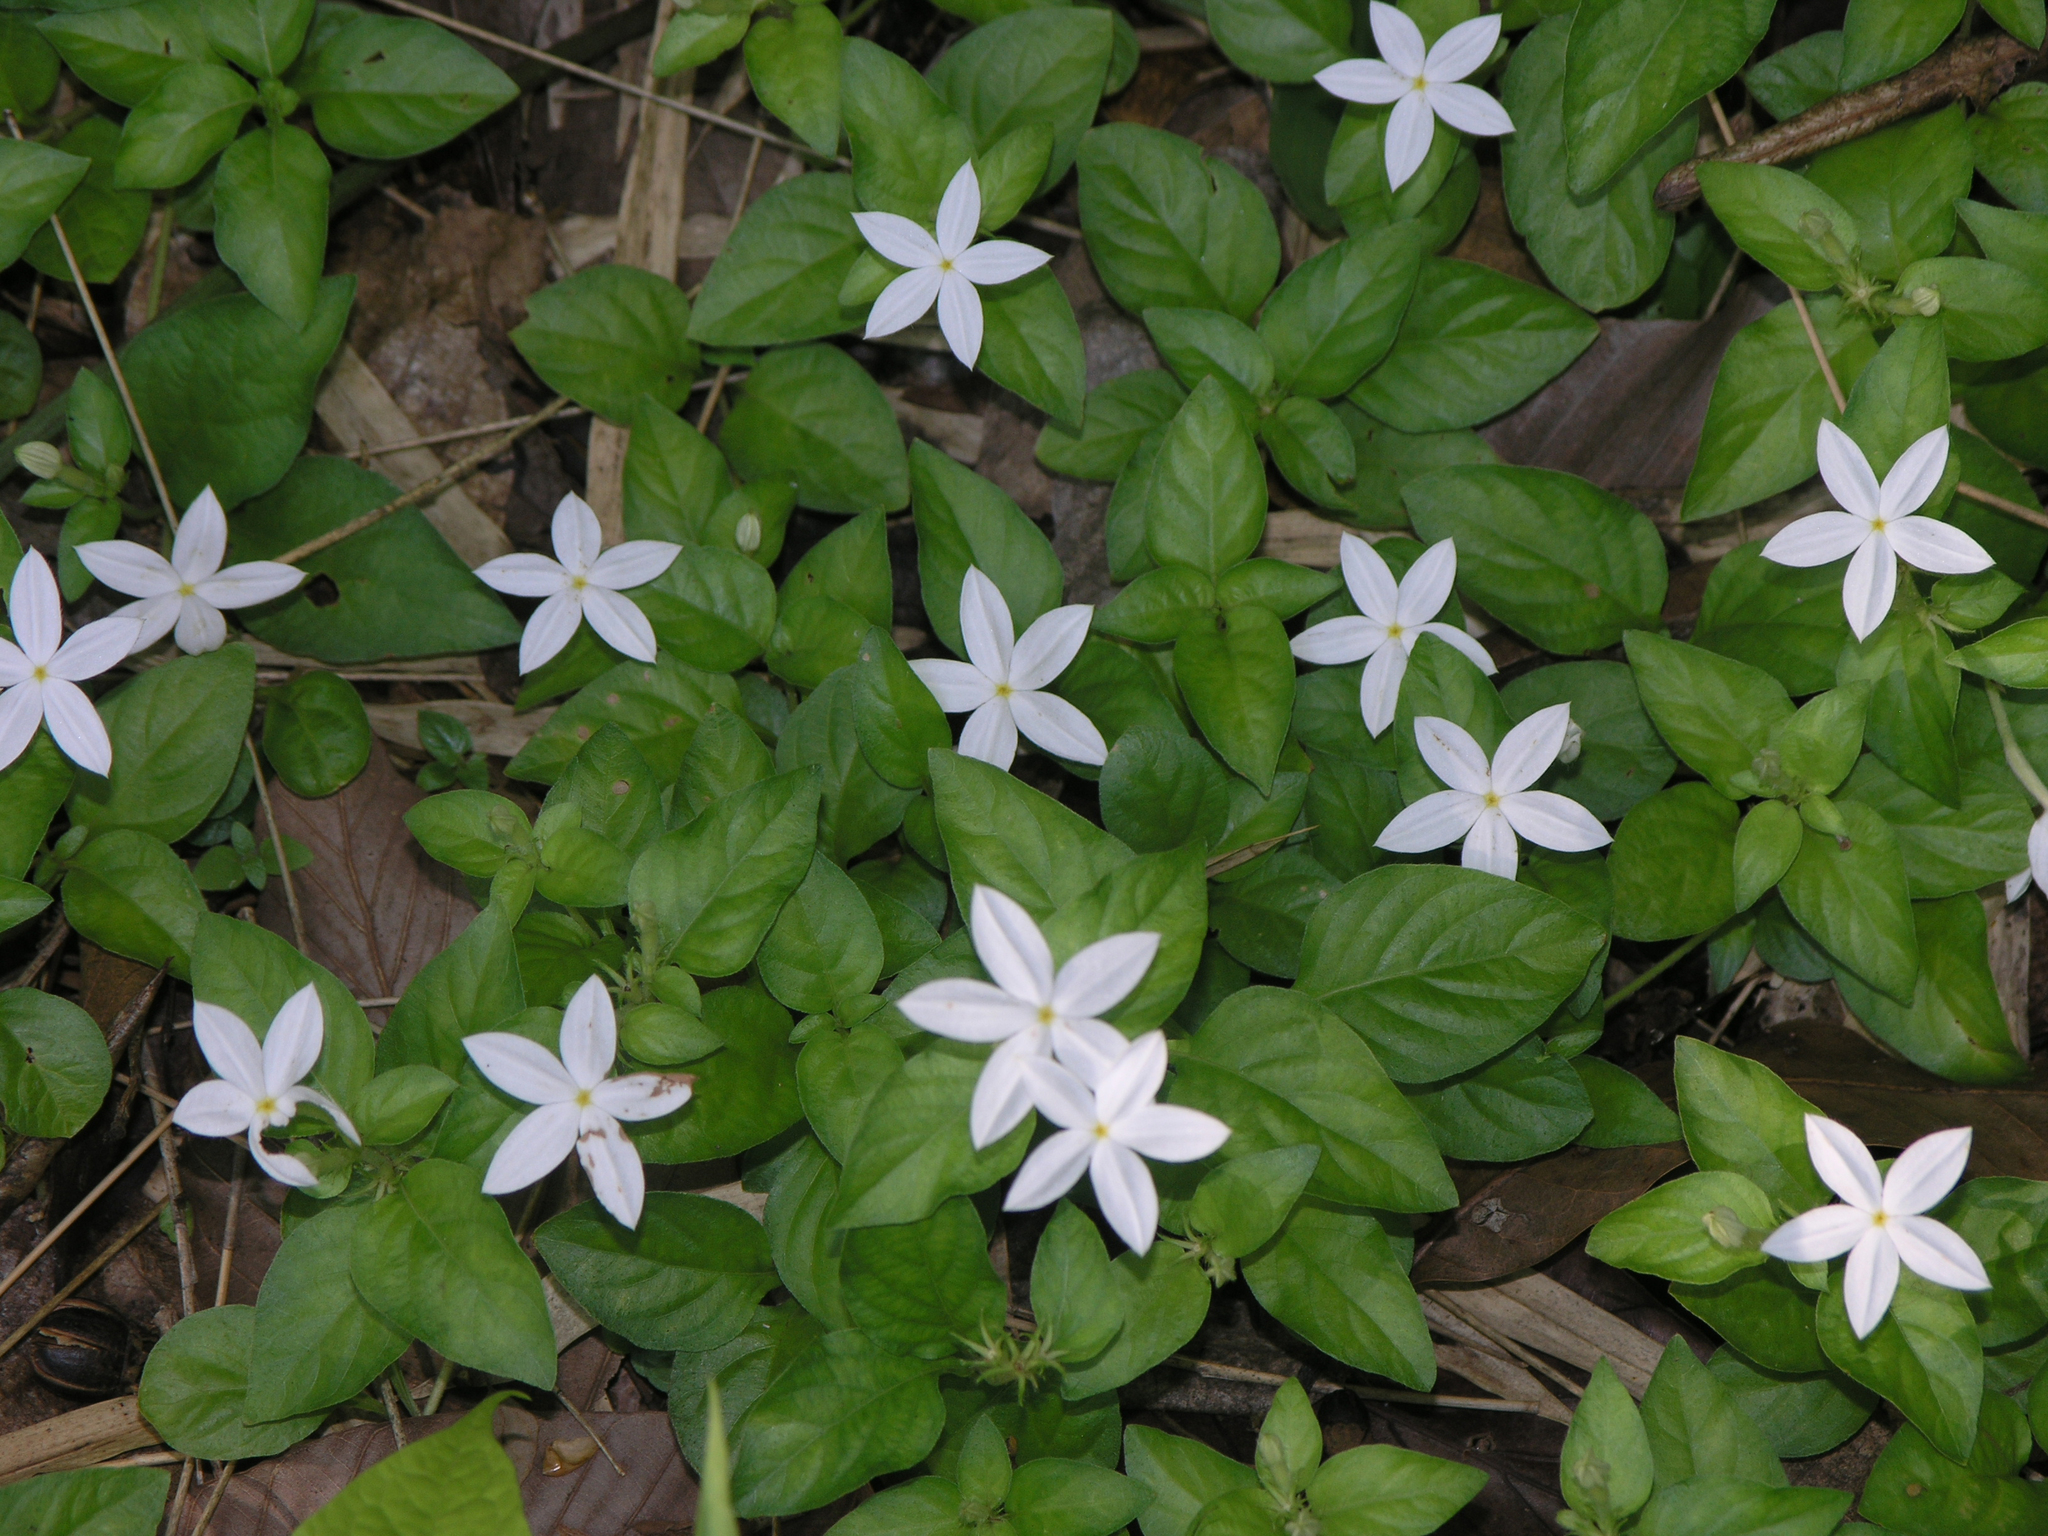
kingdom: Plantae
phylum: Tracheophyta
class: Magnoliopsida
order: Gentianales
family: Rubiaceae
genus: Mussaenda
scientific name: Mussaenda uniflora
